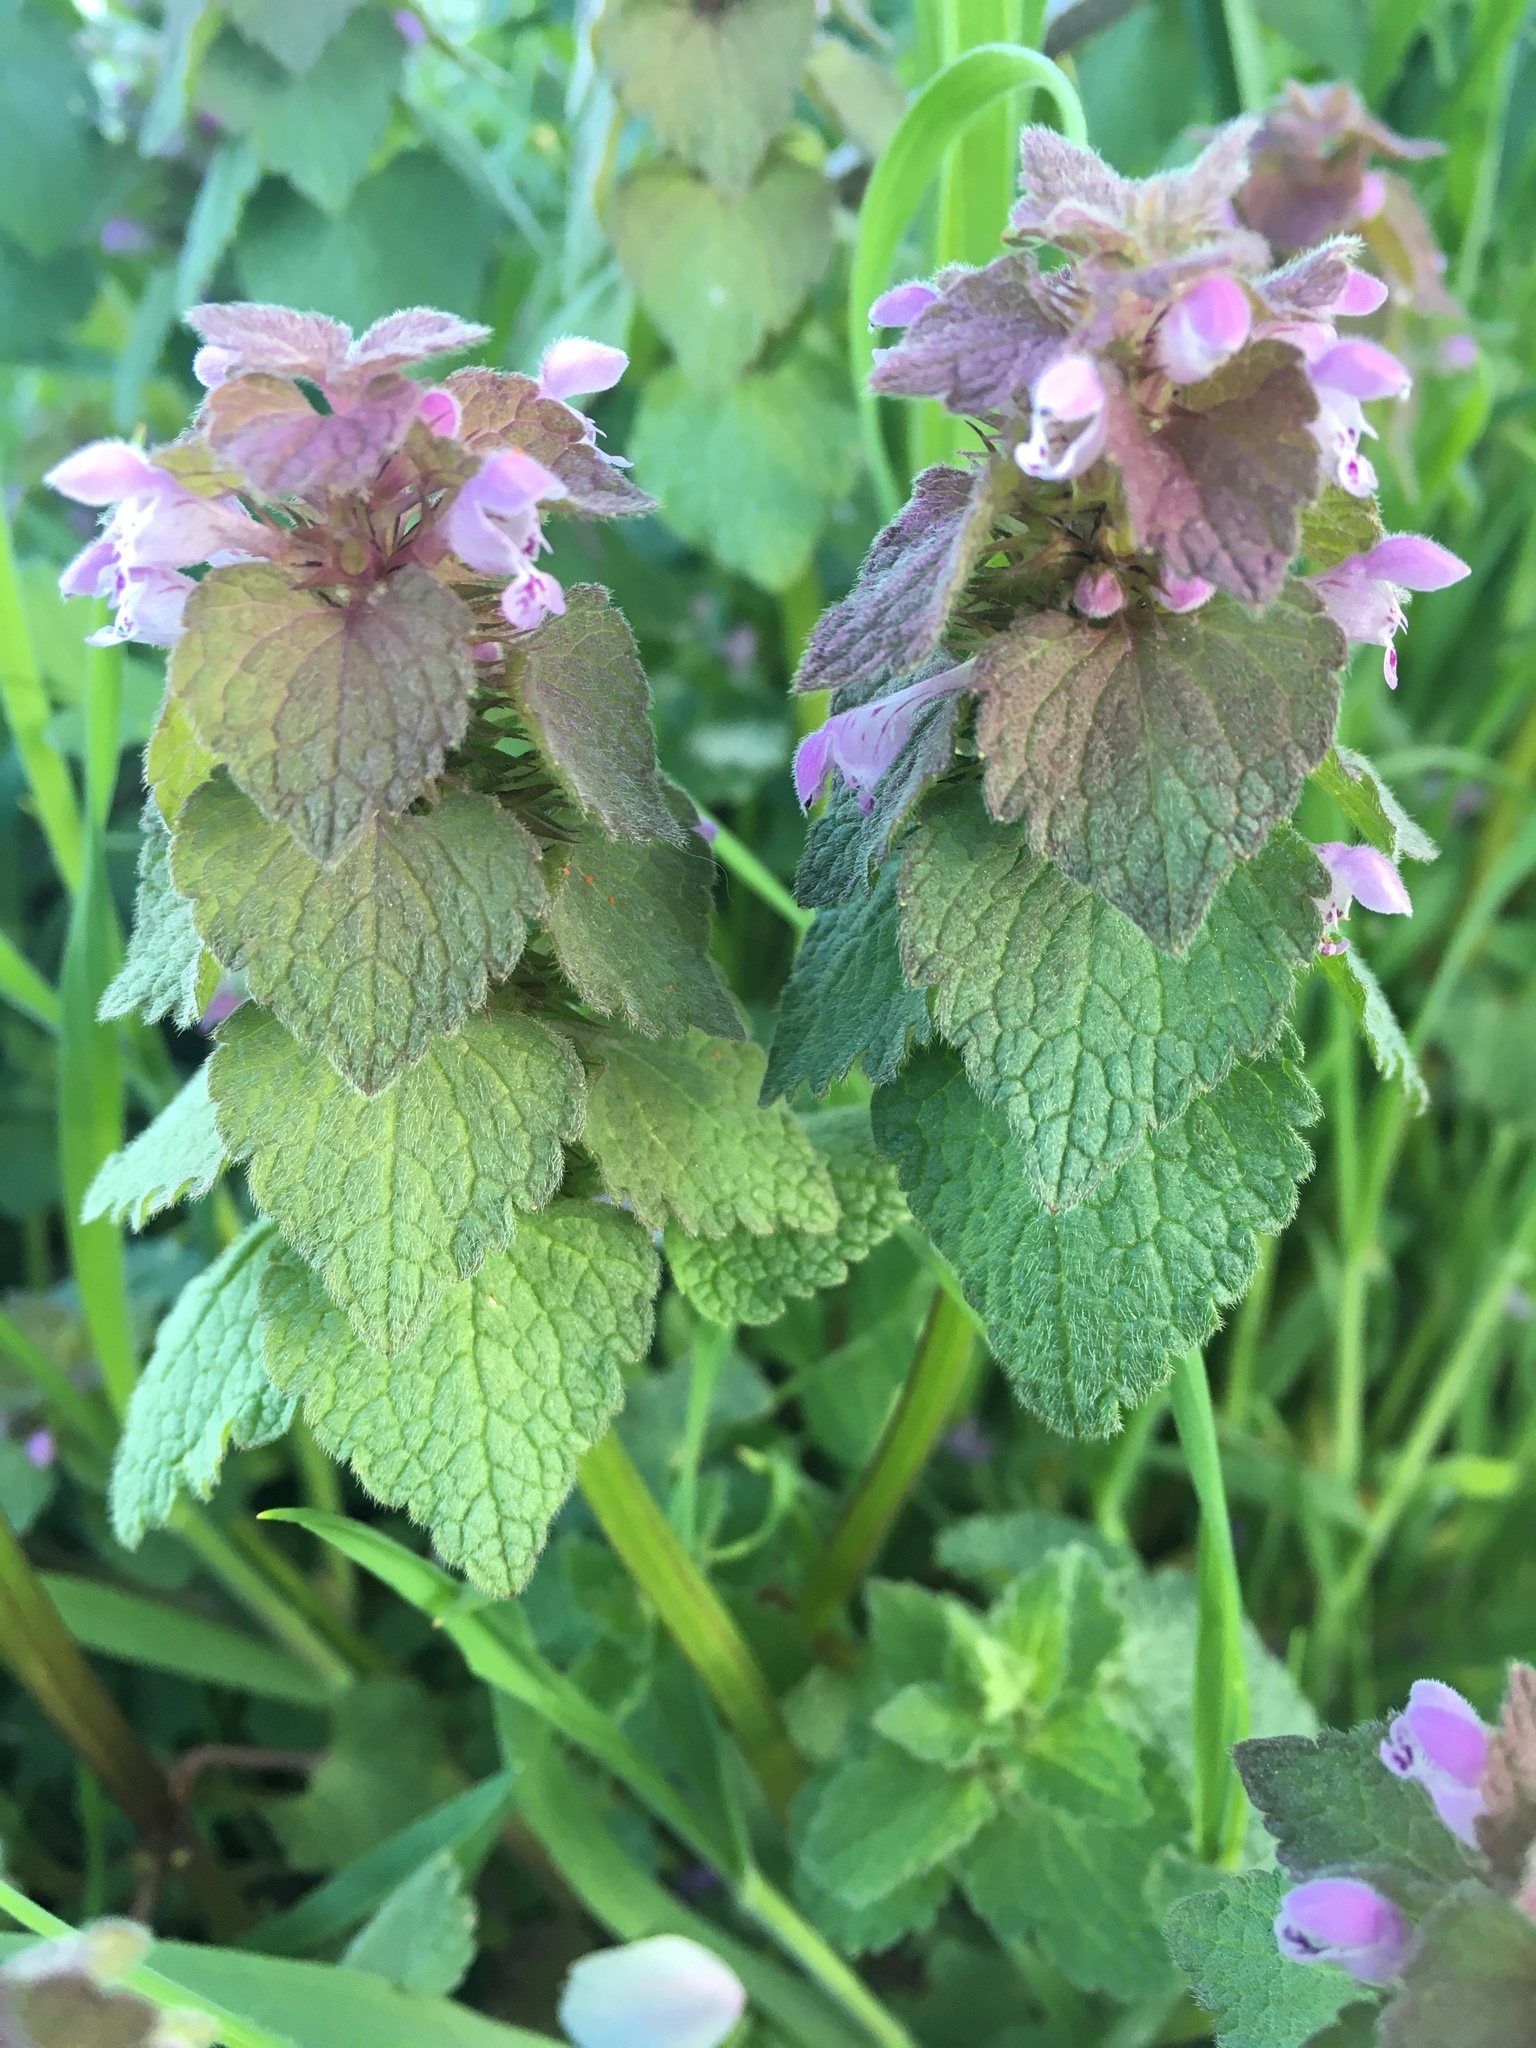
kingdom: Plantae
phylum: Tracheophyta
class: Magnoliopsida
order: Lamiales
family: Lamiaceae
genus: Lamium
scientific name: Lamium purpureum
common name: Red dead-nettle
